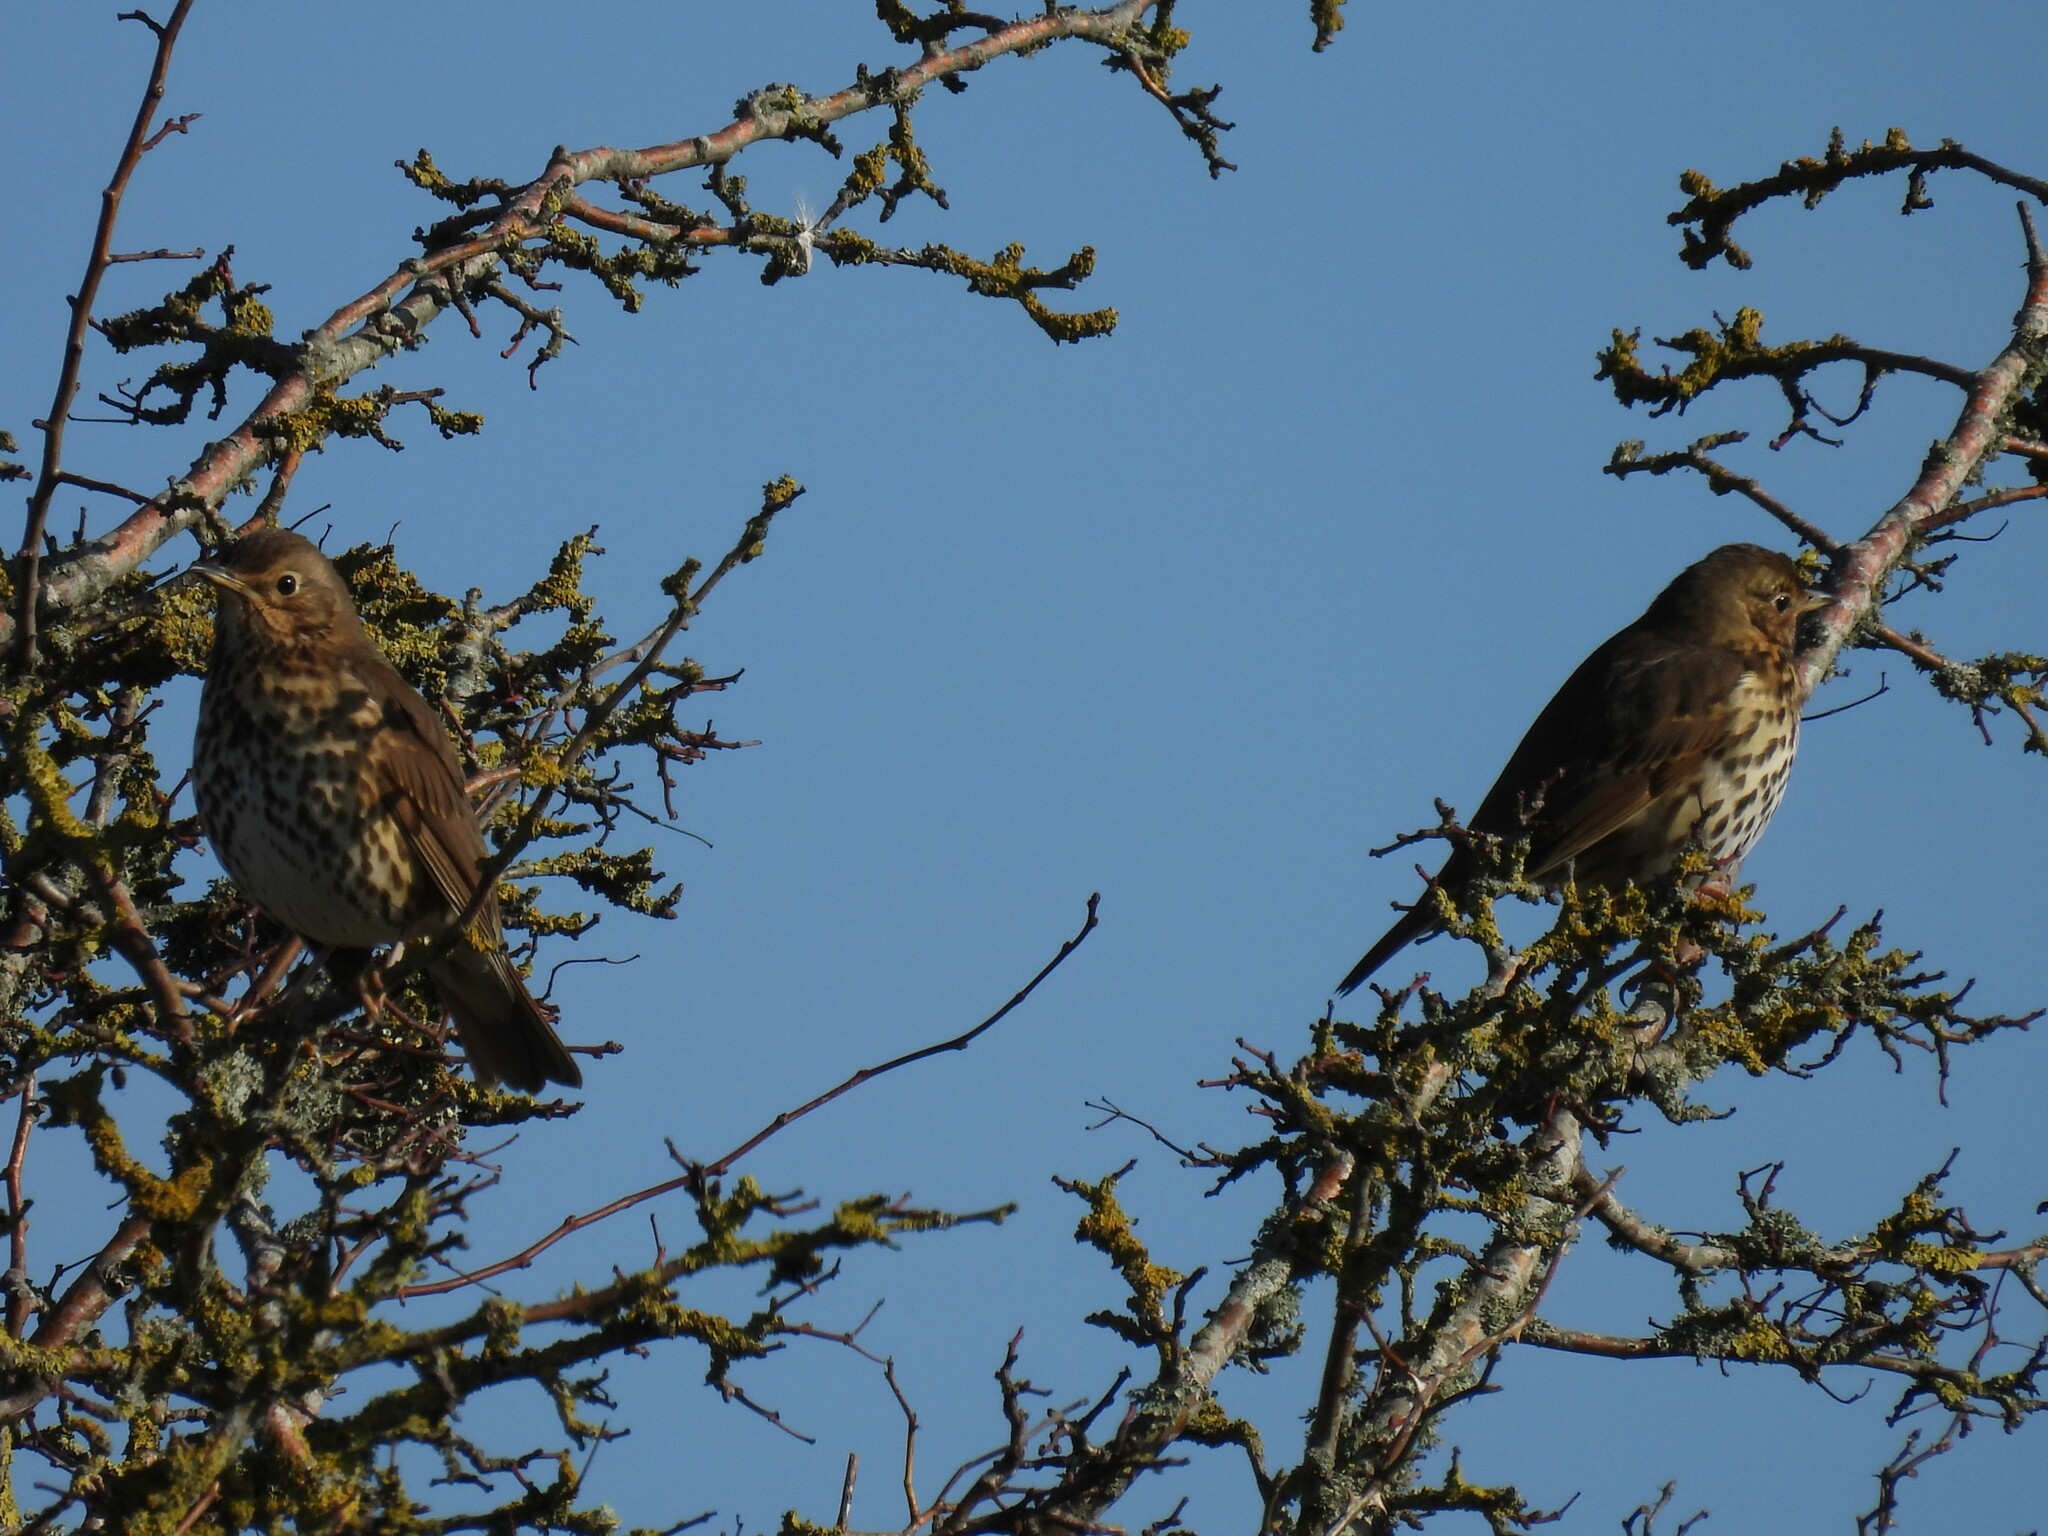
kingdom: Animalia
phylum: Chordata
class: Aves
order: Passeriformes
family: Turdidae
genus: Turdus
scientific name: Turdus philomelos
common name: Song thrush
